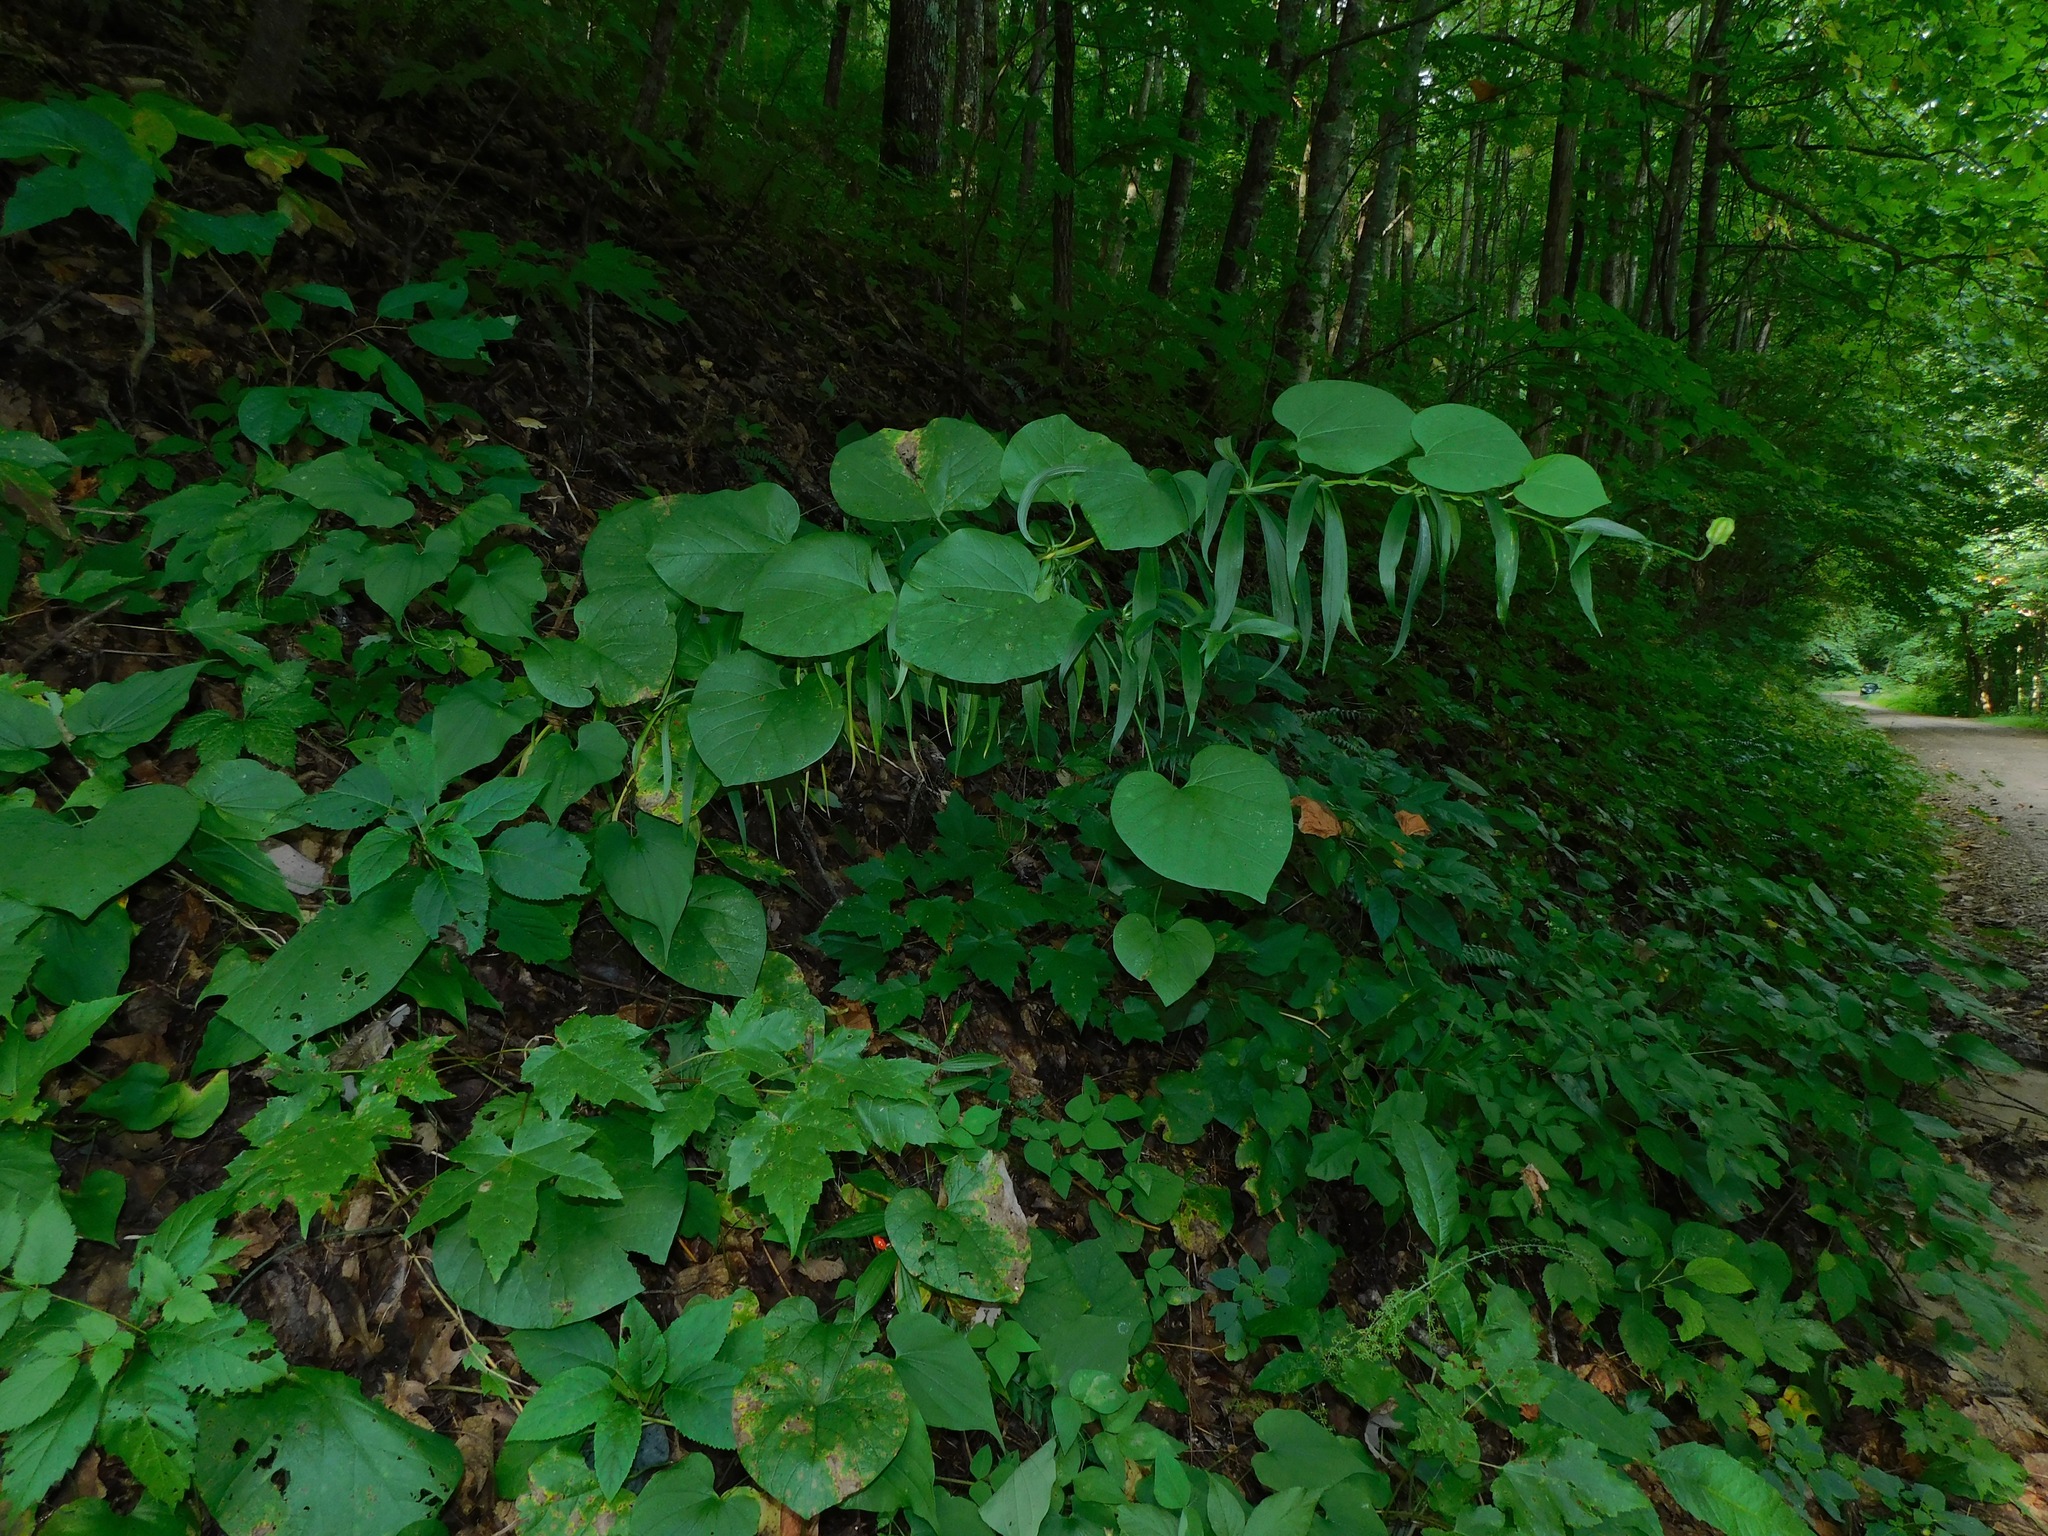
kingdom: Plantae
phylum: Tracheophyta
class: Liliopsida
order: Liliales
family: Liliaceae
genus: Lilium
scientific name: Lilium superbum
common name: American turk's-cap lily
